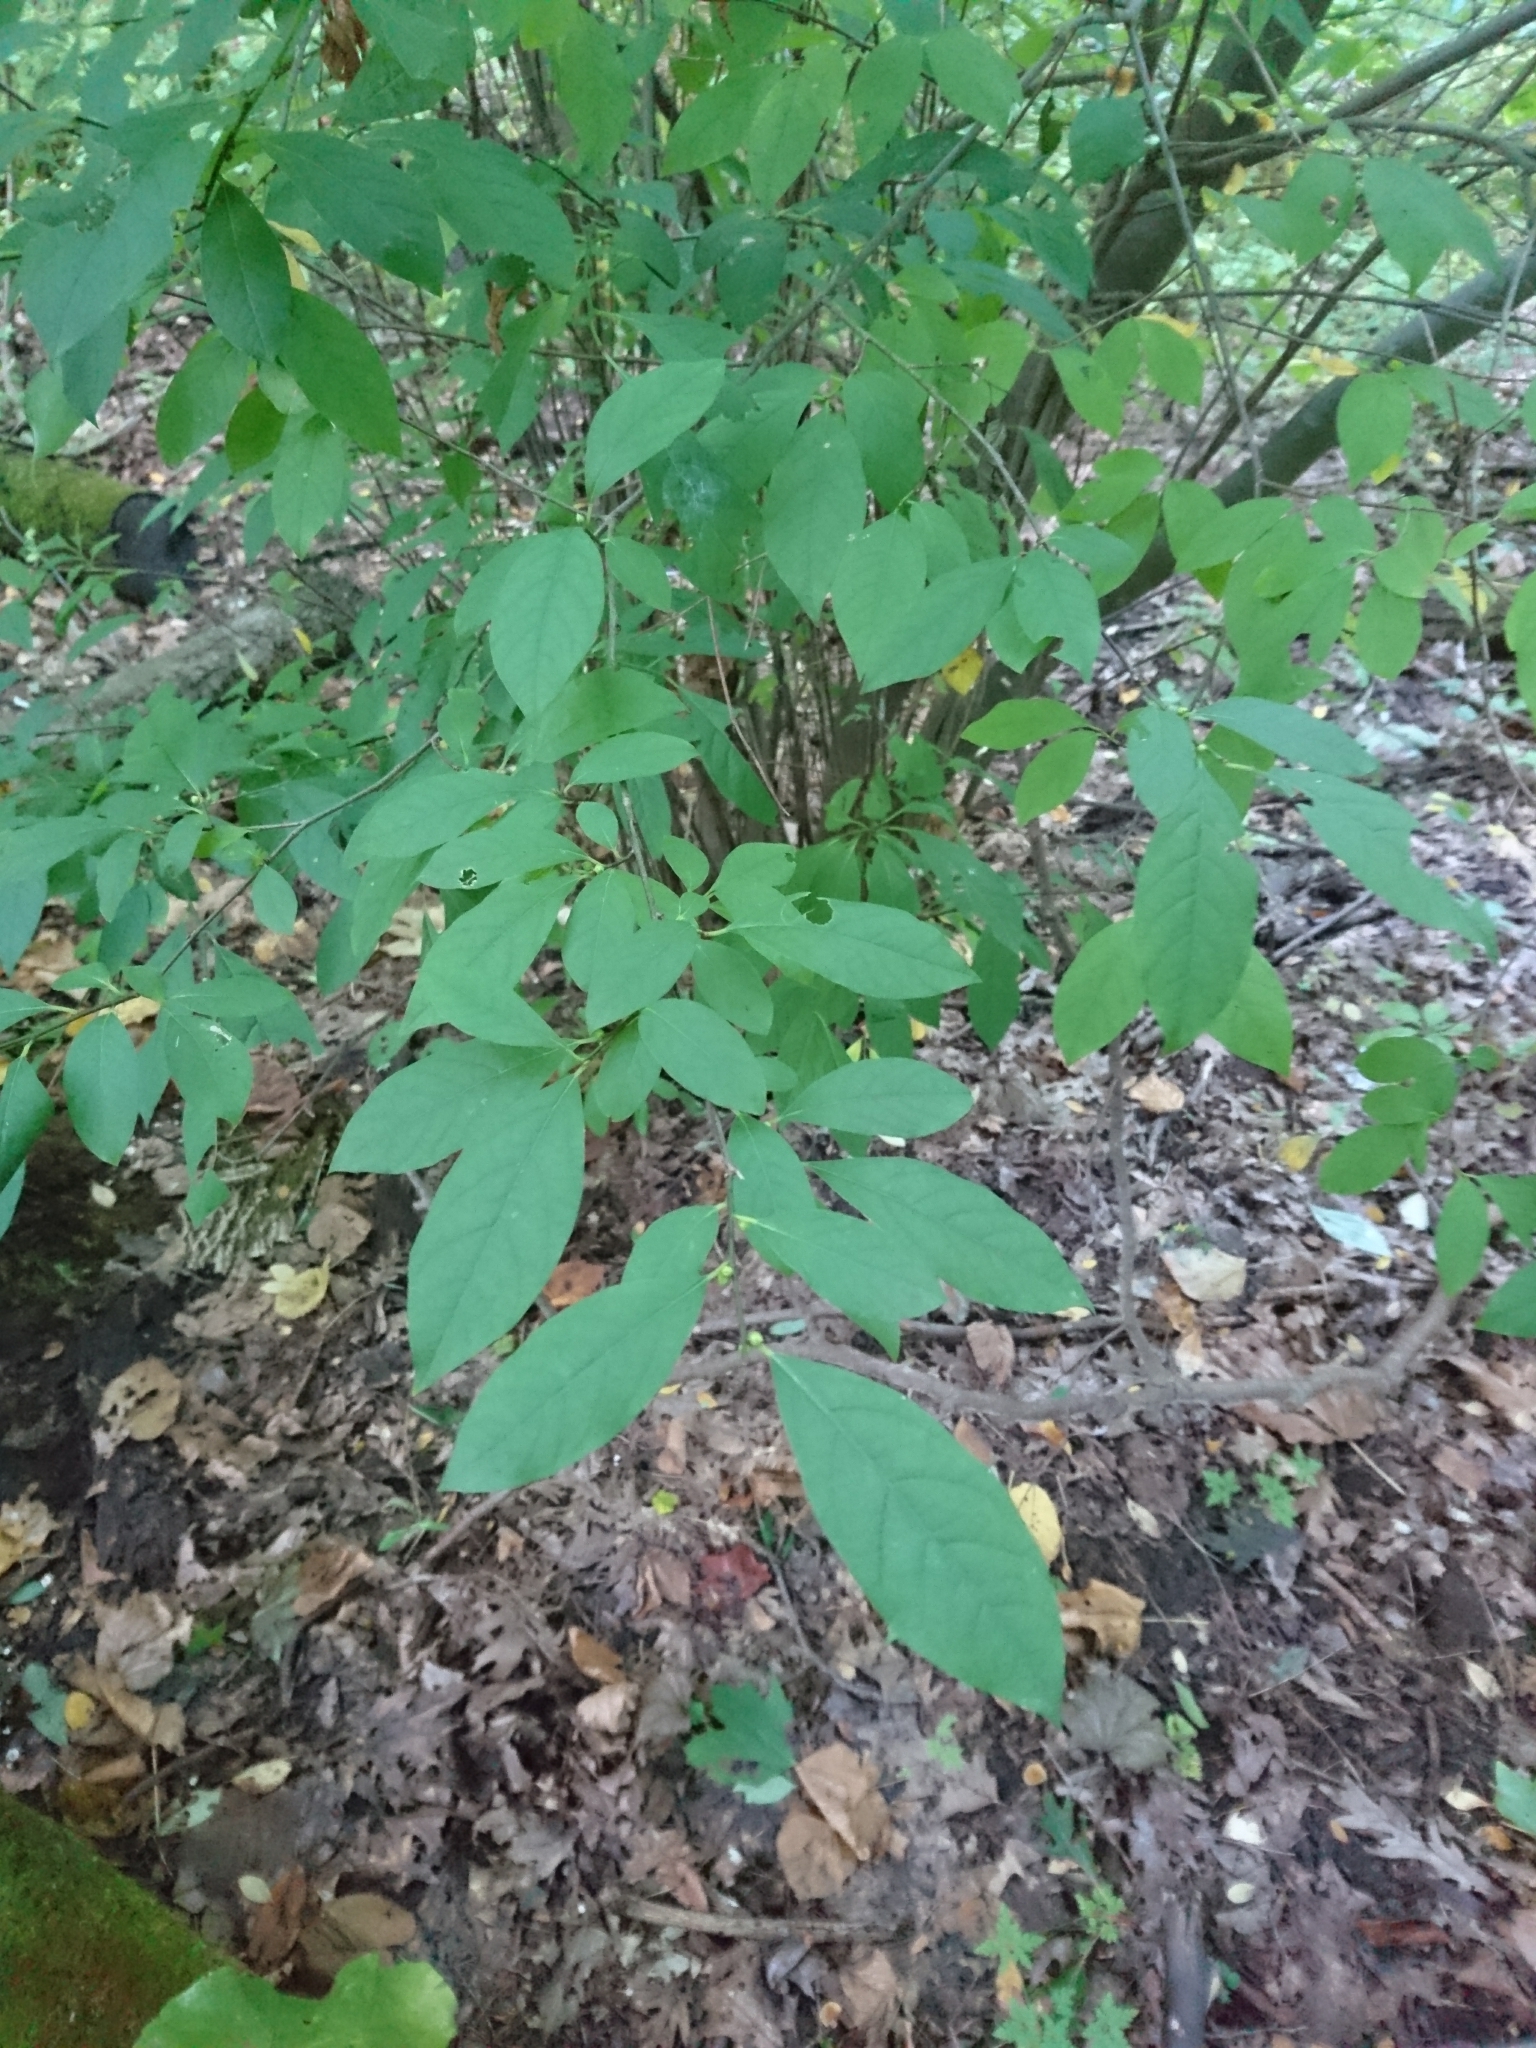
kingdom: Plantae
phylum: Tracheophyta
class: Magnoliopsida
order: Laurales
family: Lauraceae
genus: Lindera
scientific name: Lindera benzoin
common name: Spicebush
